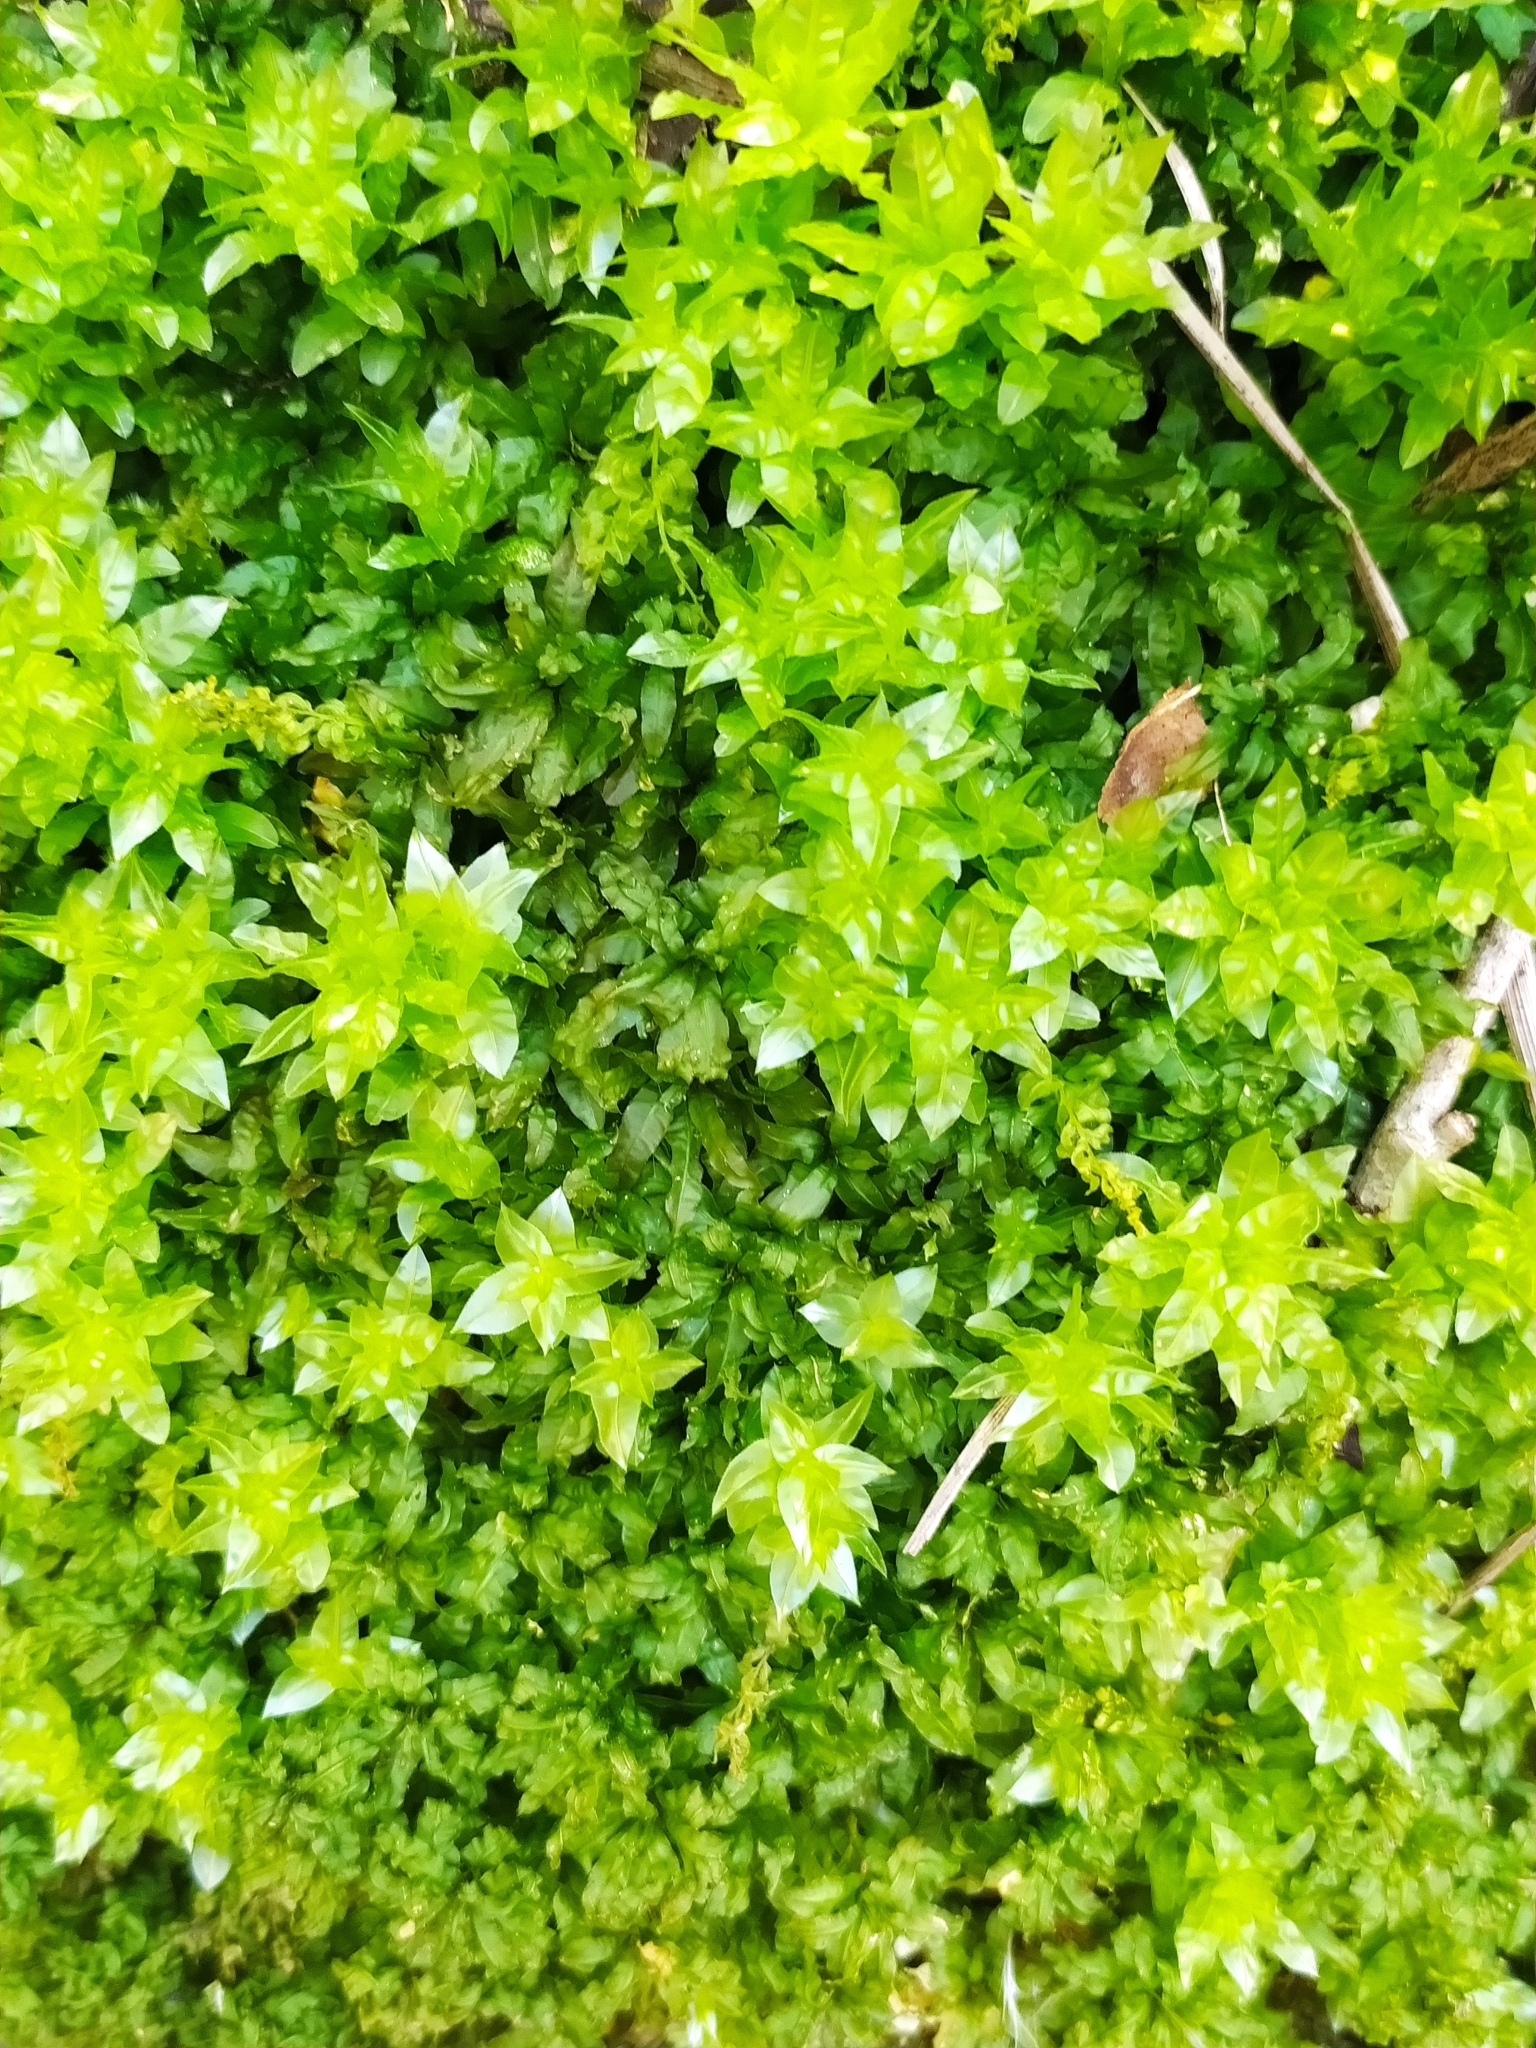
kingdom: Plantae
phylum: Bryophyta
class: Bryopsida
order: Bryales
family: Mniaceae
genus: Plagiomnium
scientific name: Plagiomnium undulatum
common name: Hart's-tongue thyme-moss
